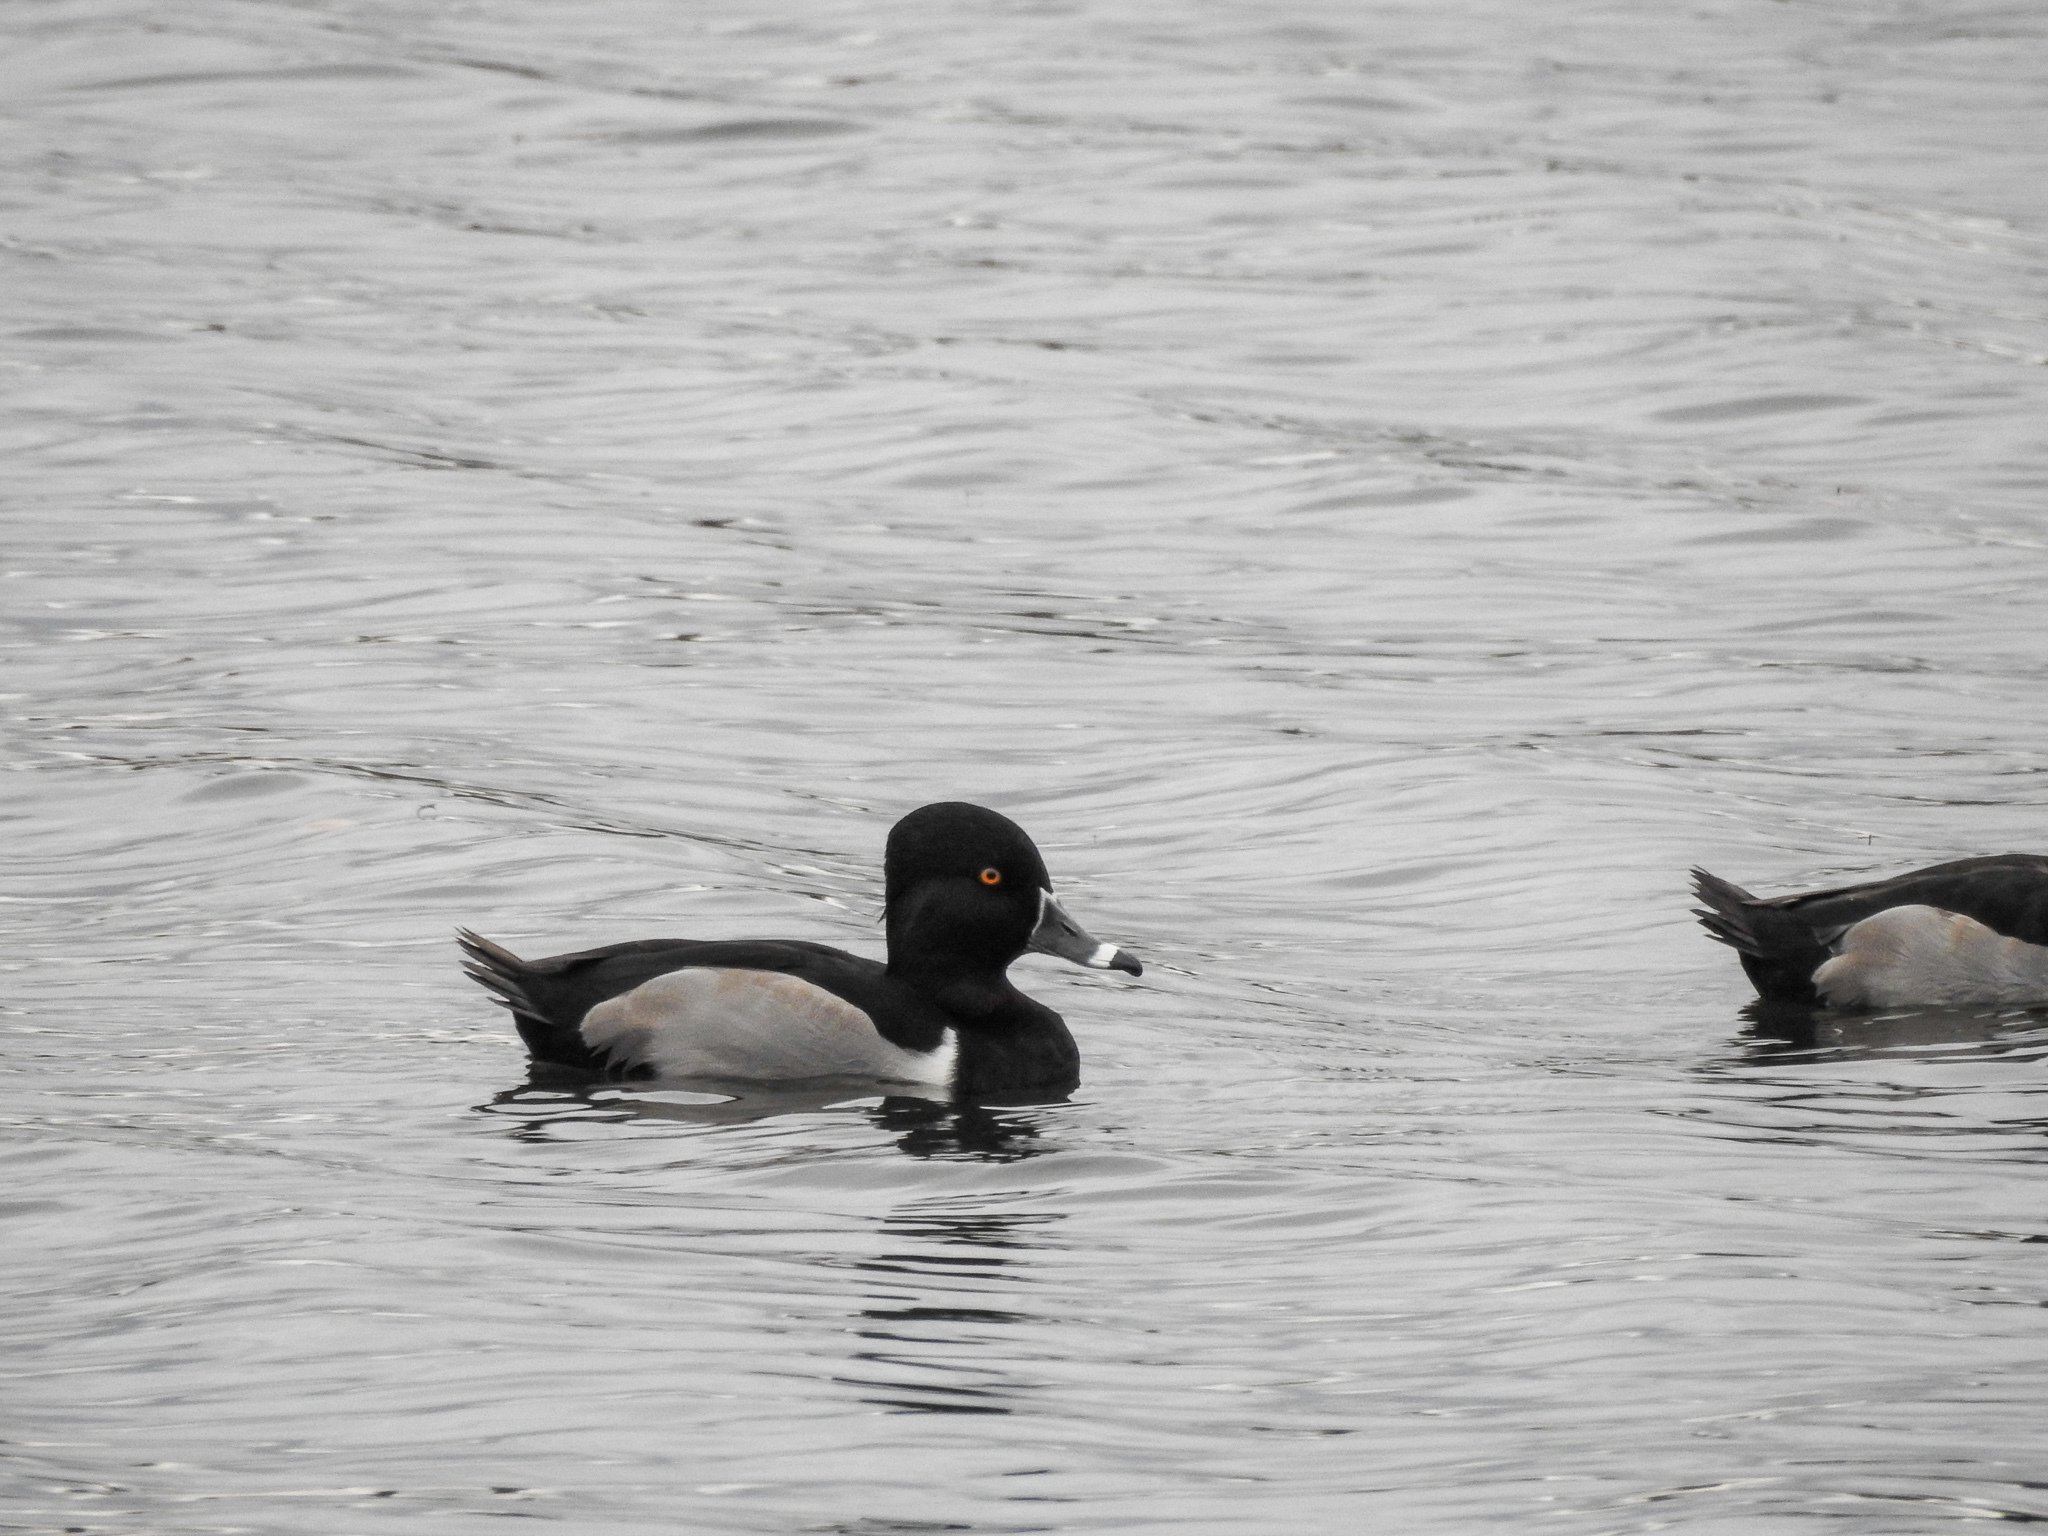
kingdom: Animalia
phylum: Chordata
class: Aves
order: Anseriformes
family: Anatidae
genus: Aythya
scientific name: Aythya collaris
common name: Ring-necked duck
